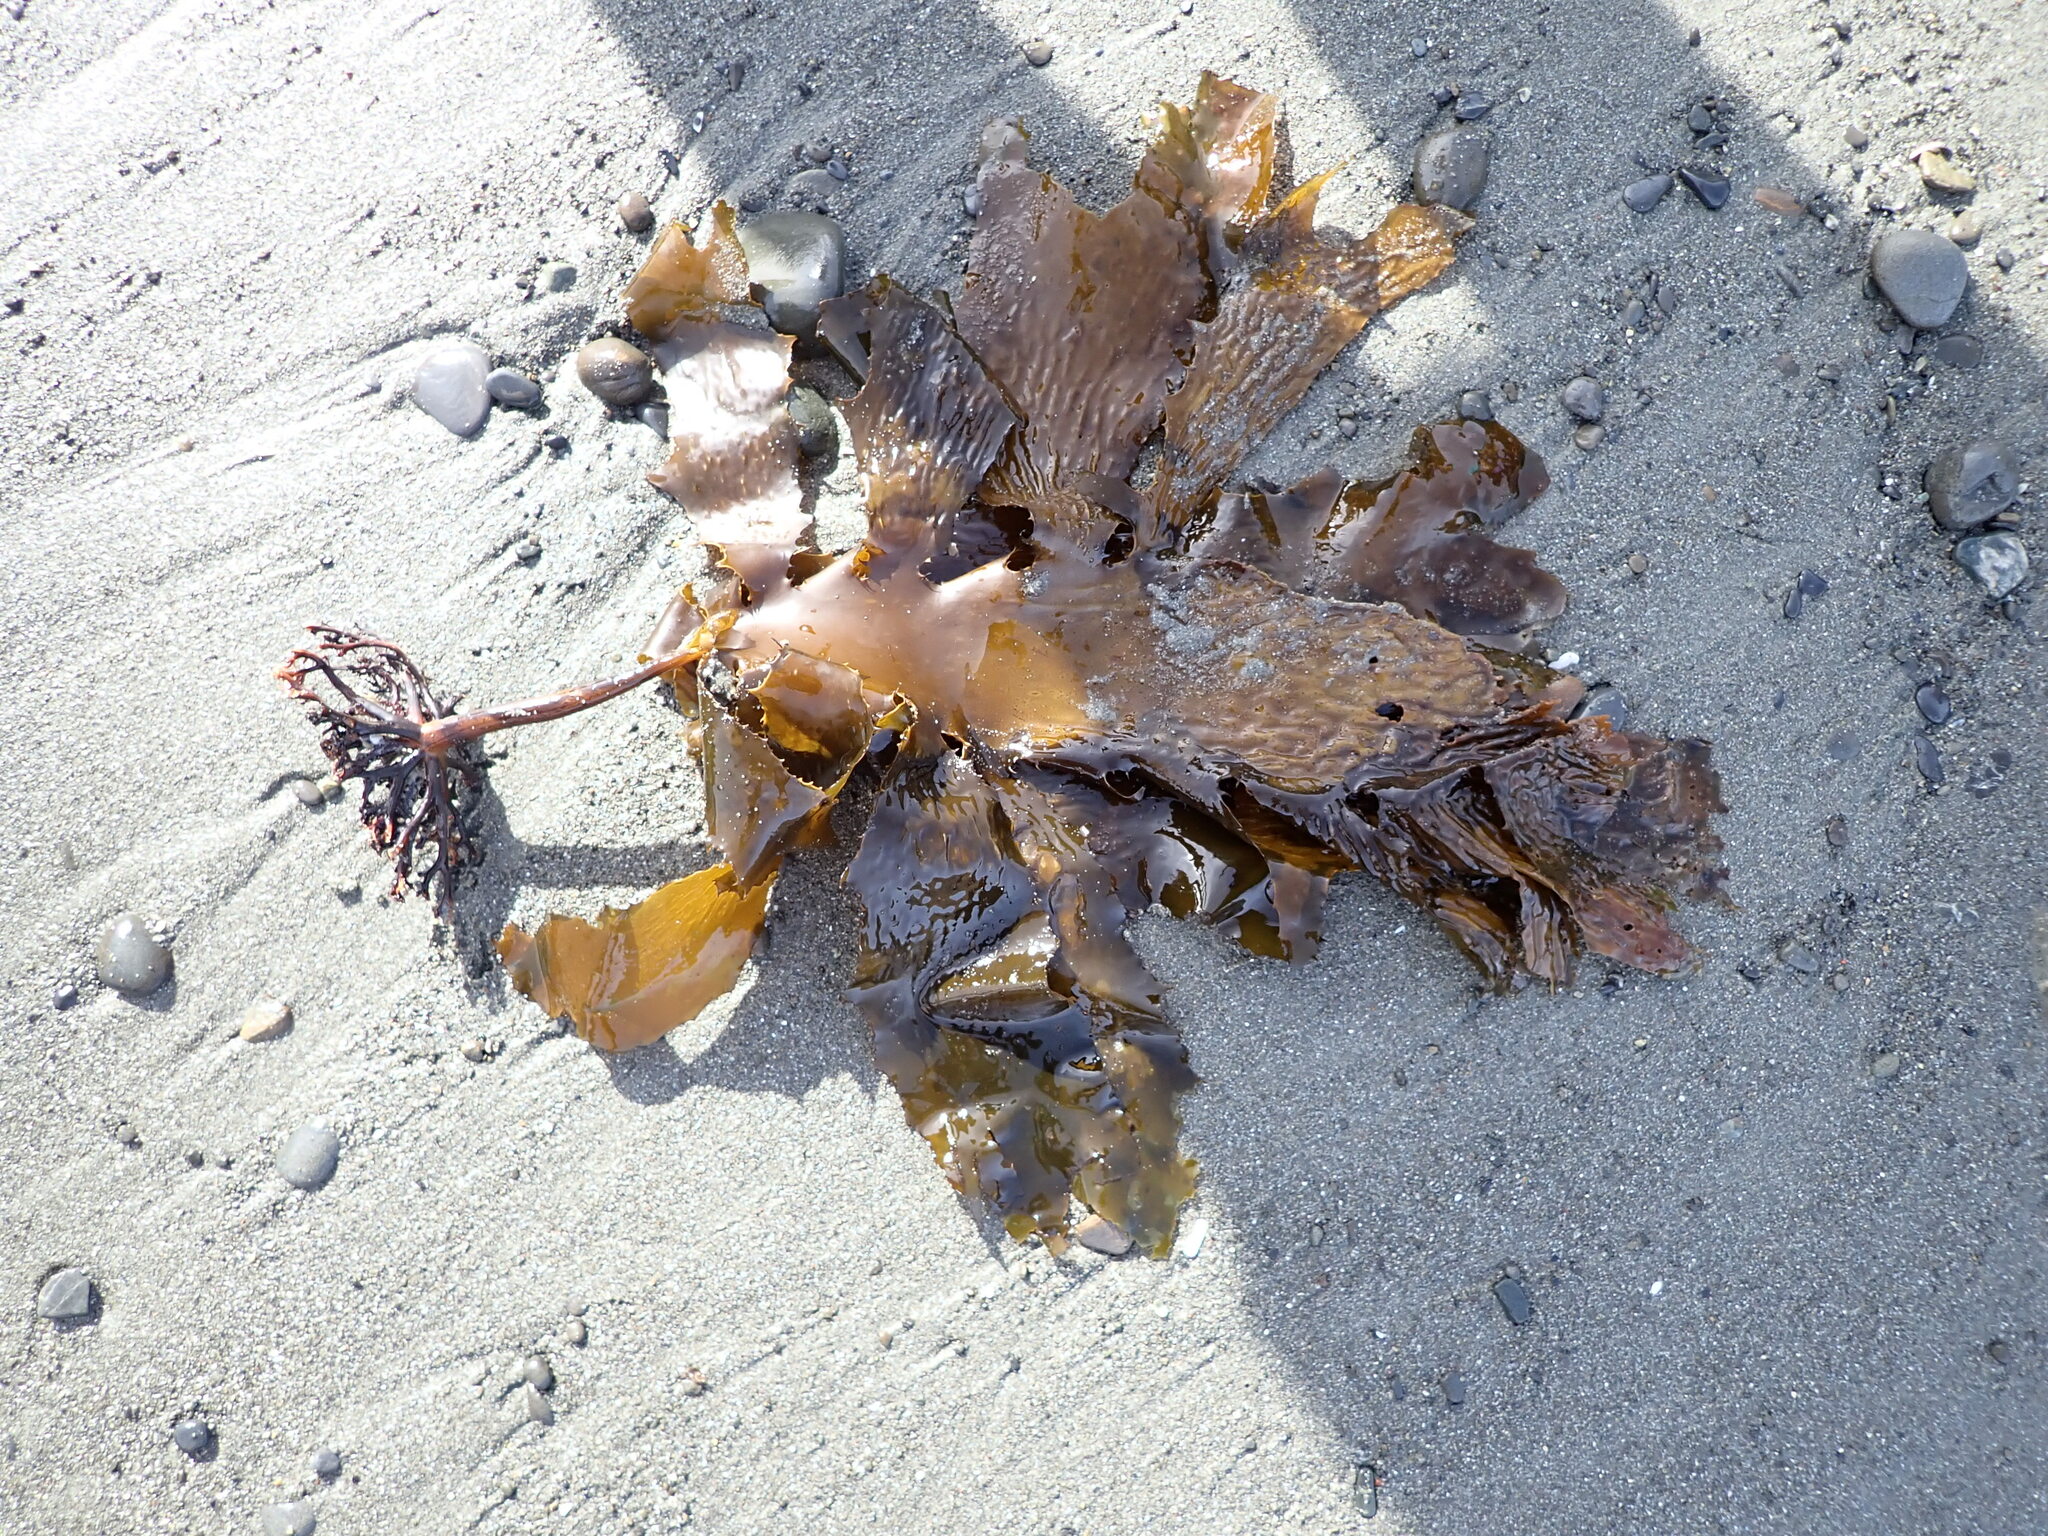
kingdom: Chromista
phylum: Ochrophyta
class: Phaeophyceae
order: Laminariales
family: Lessoniaceae
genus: Ecklonia
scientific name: Ecklonia radiata
